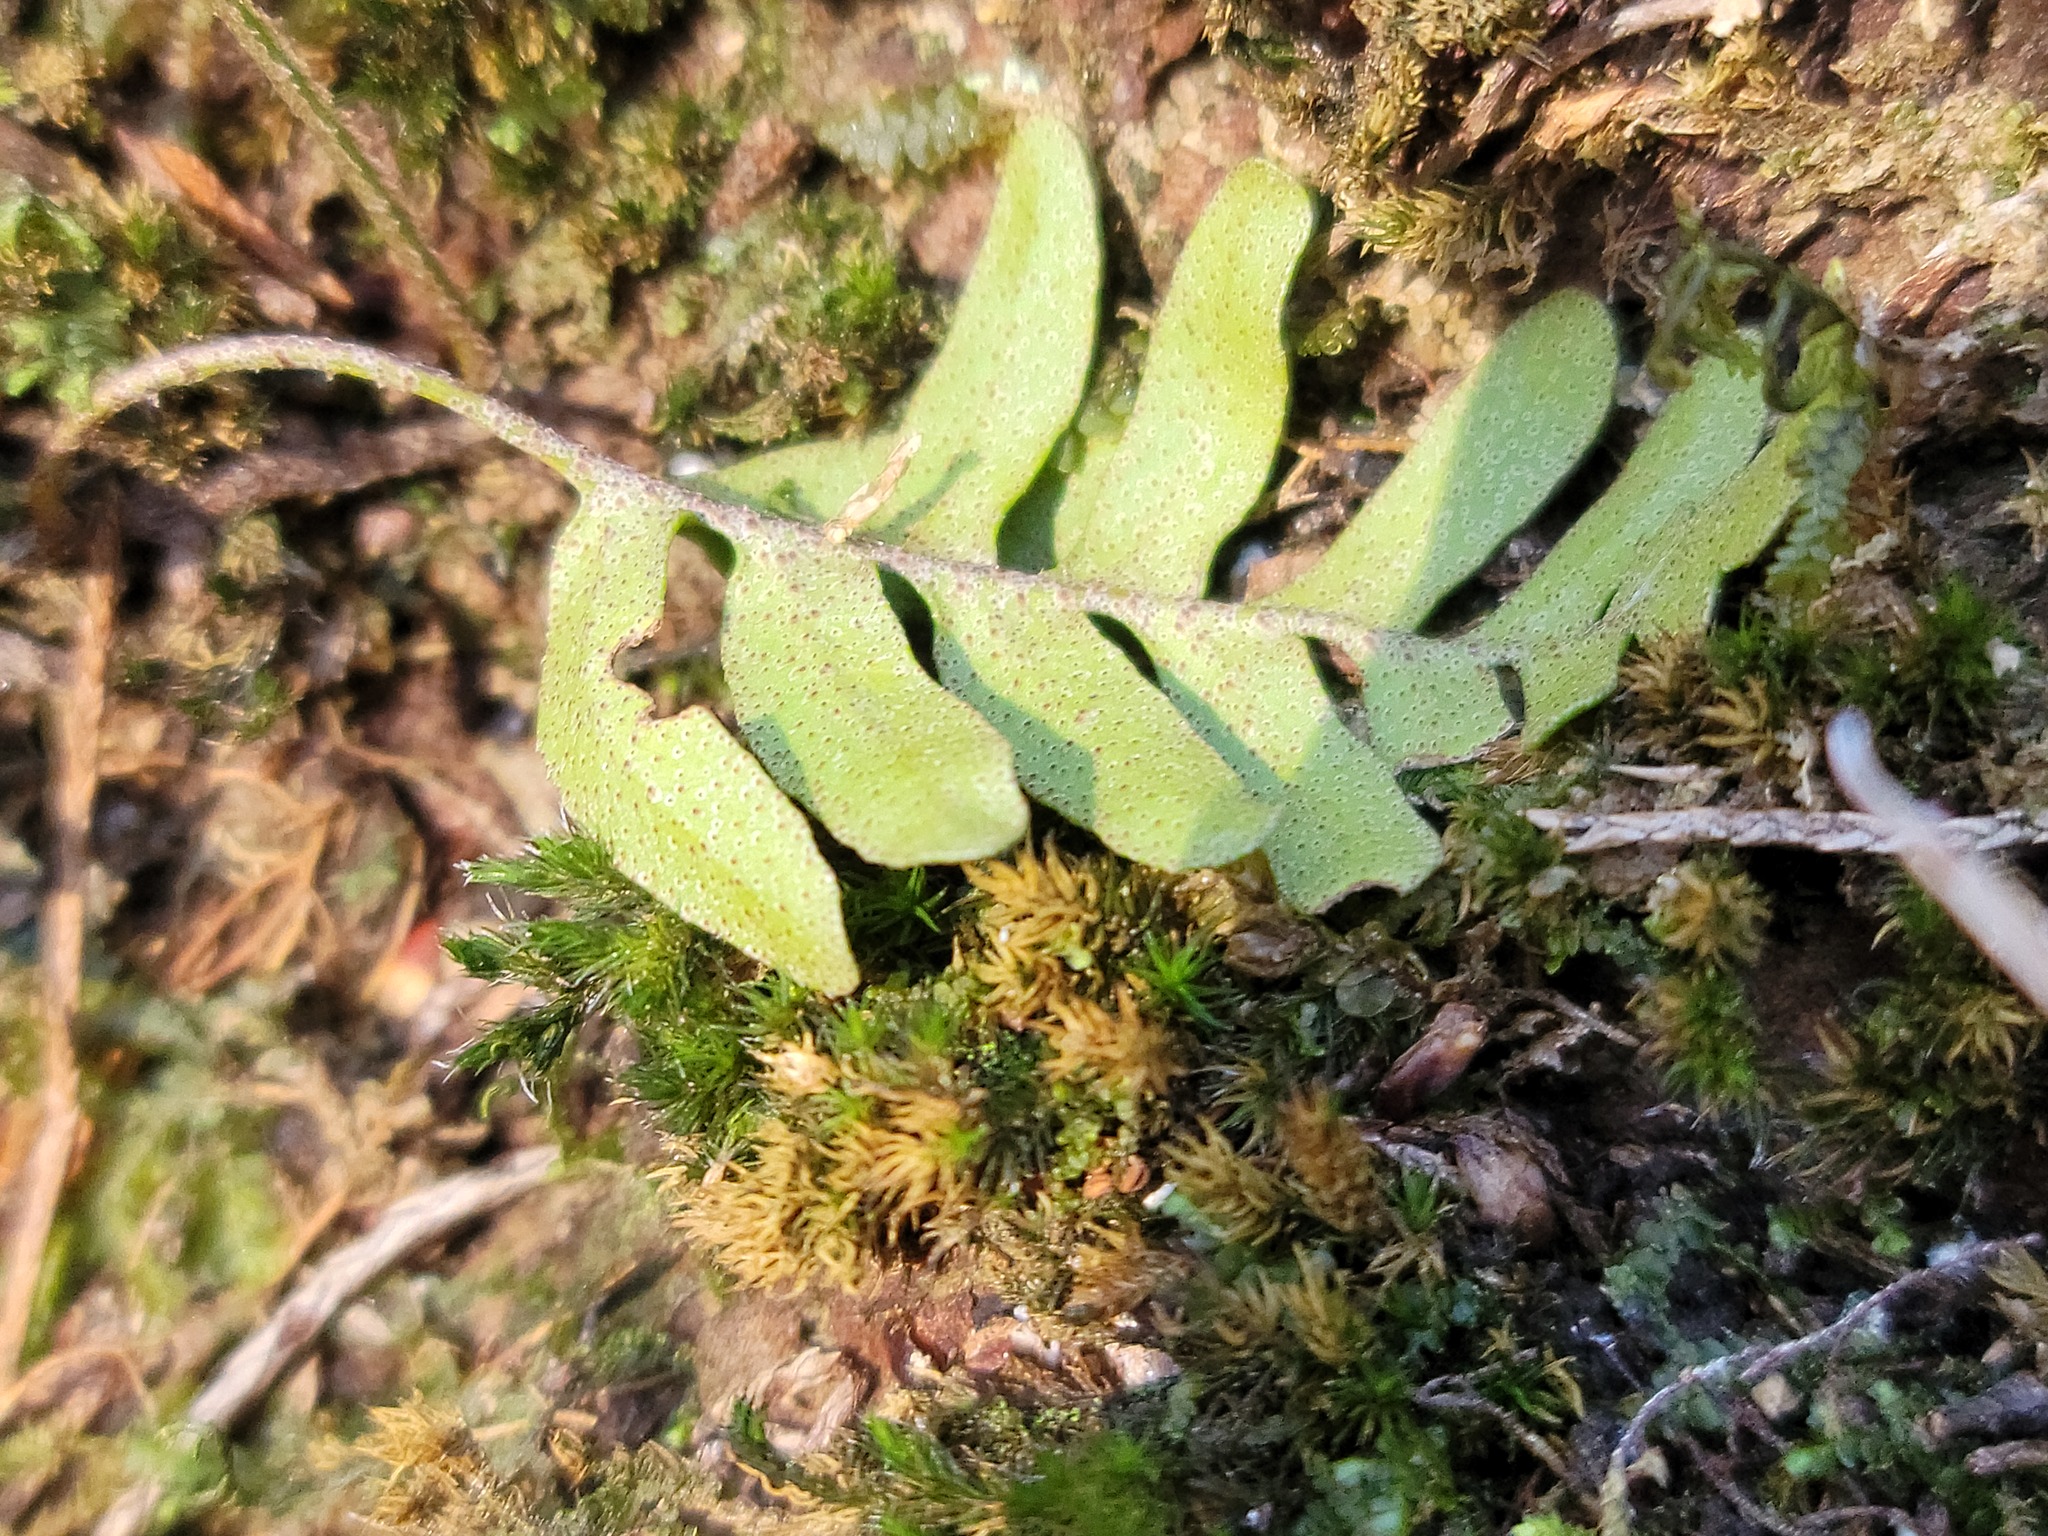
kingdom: Plantae
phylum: Tracheophyta
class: Polypodiopsida
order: Polypodiales
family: Polypodiaceae
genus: Pleopeltis
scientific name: Pleopeltis michauxiana
